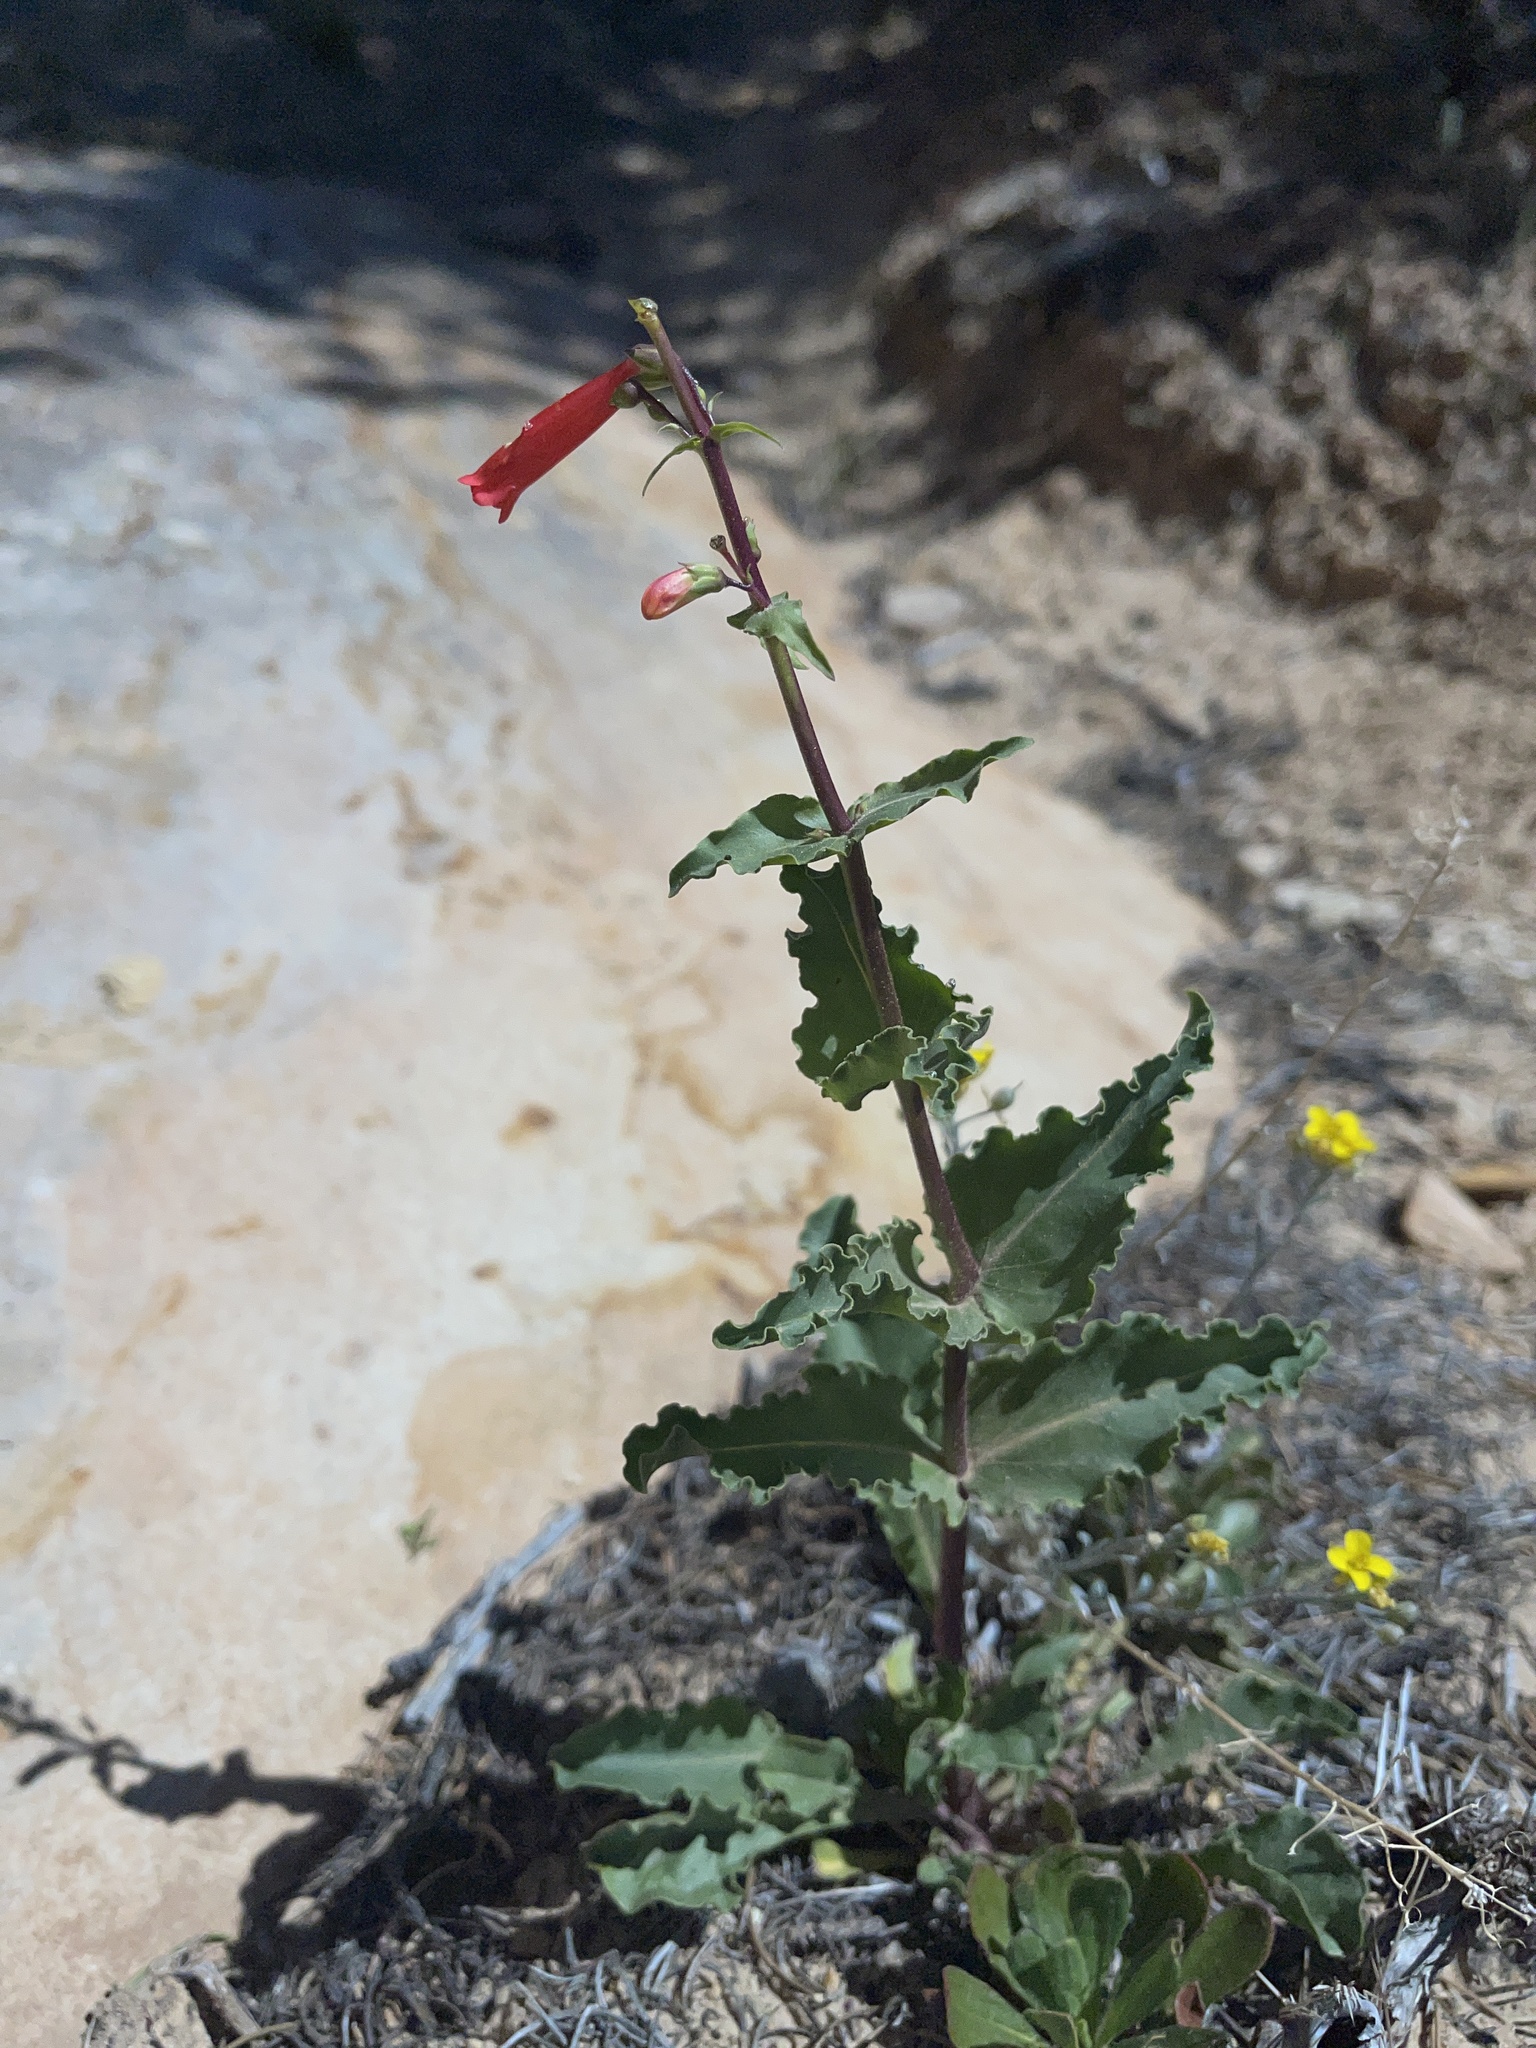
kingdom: Plantae
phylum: Tracheophyta
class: Magnoliopsida
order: Lamiales
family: Plantaginaceae
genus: Penstemon
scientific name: Penstemon eatonii
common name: Eaton's penstemon
